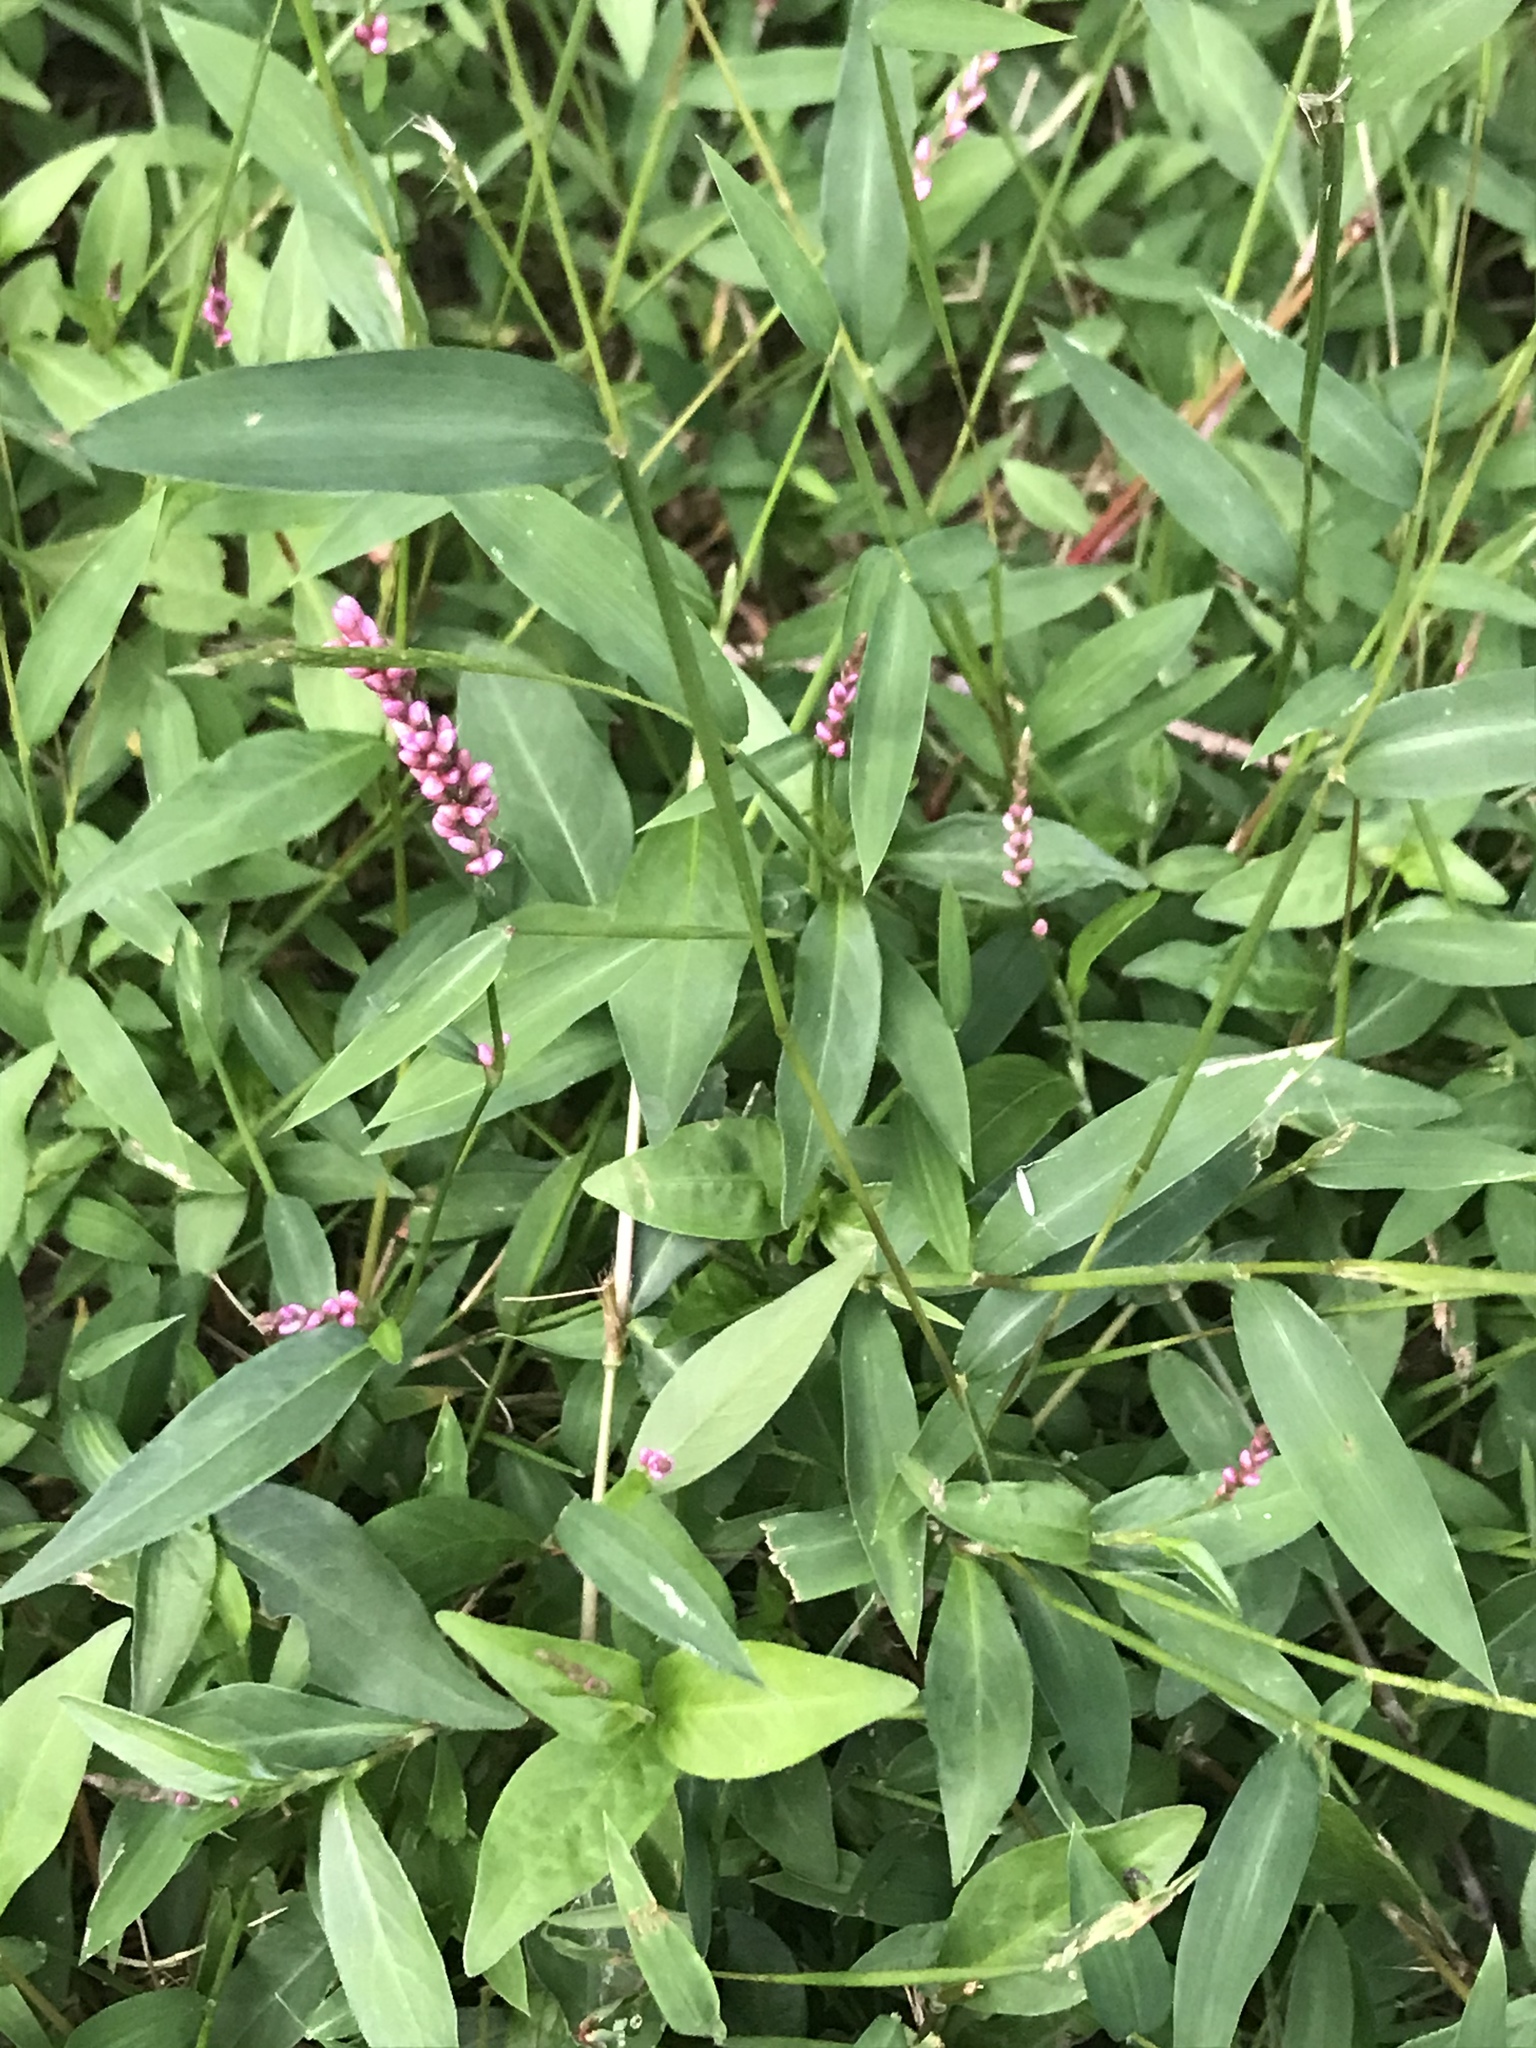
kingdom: Plantae
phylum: Tracheophyta
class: Magnoliopsida
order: Caryophyllales
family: Polygonaceae
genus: Persicaria
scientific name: Persicaria longiseta
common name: Bristly lady's-thumb
